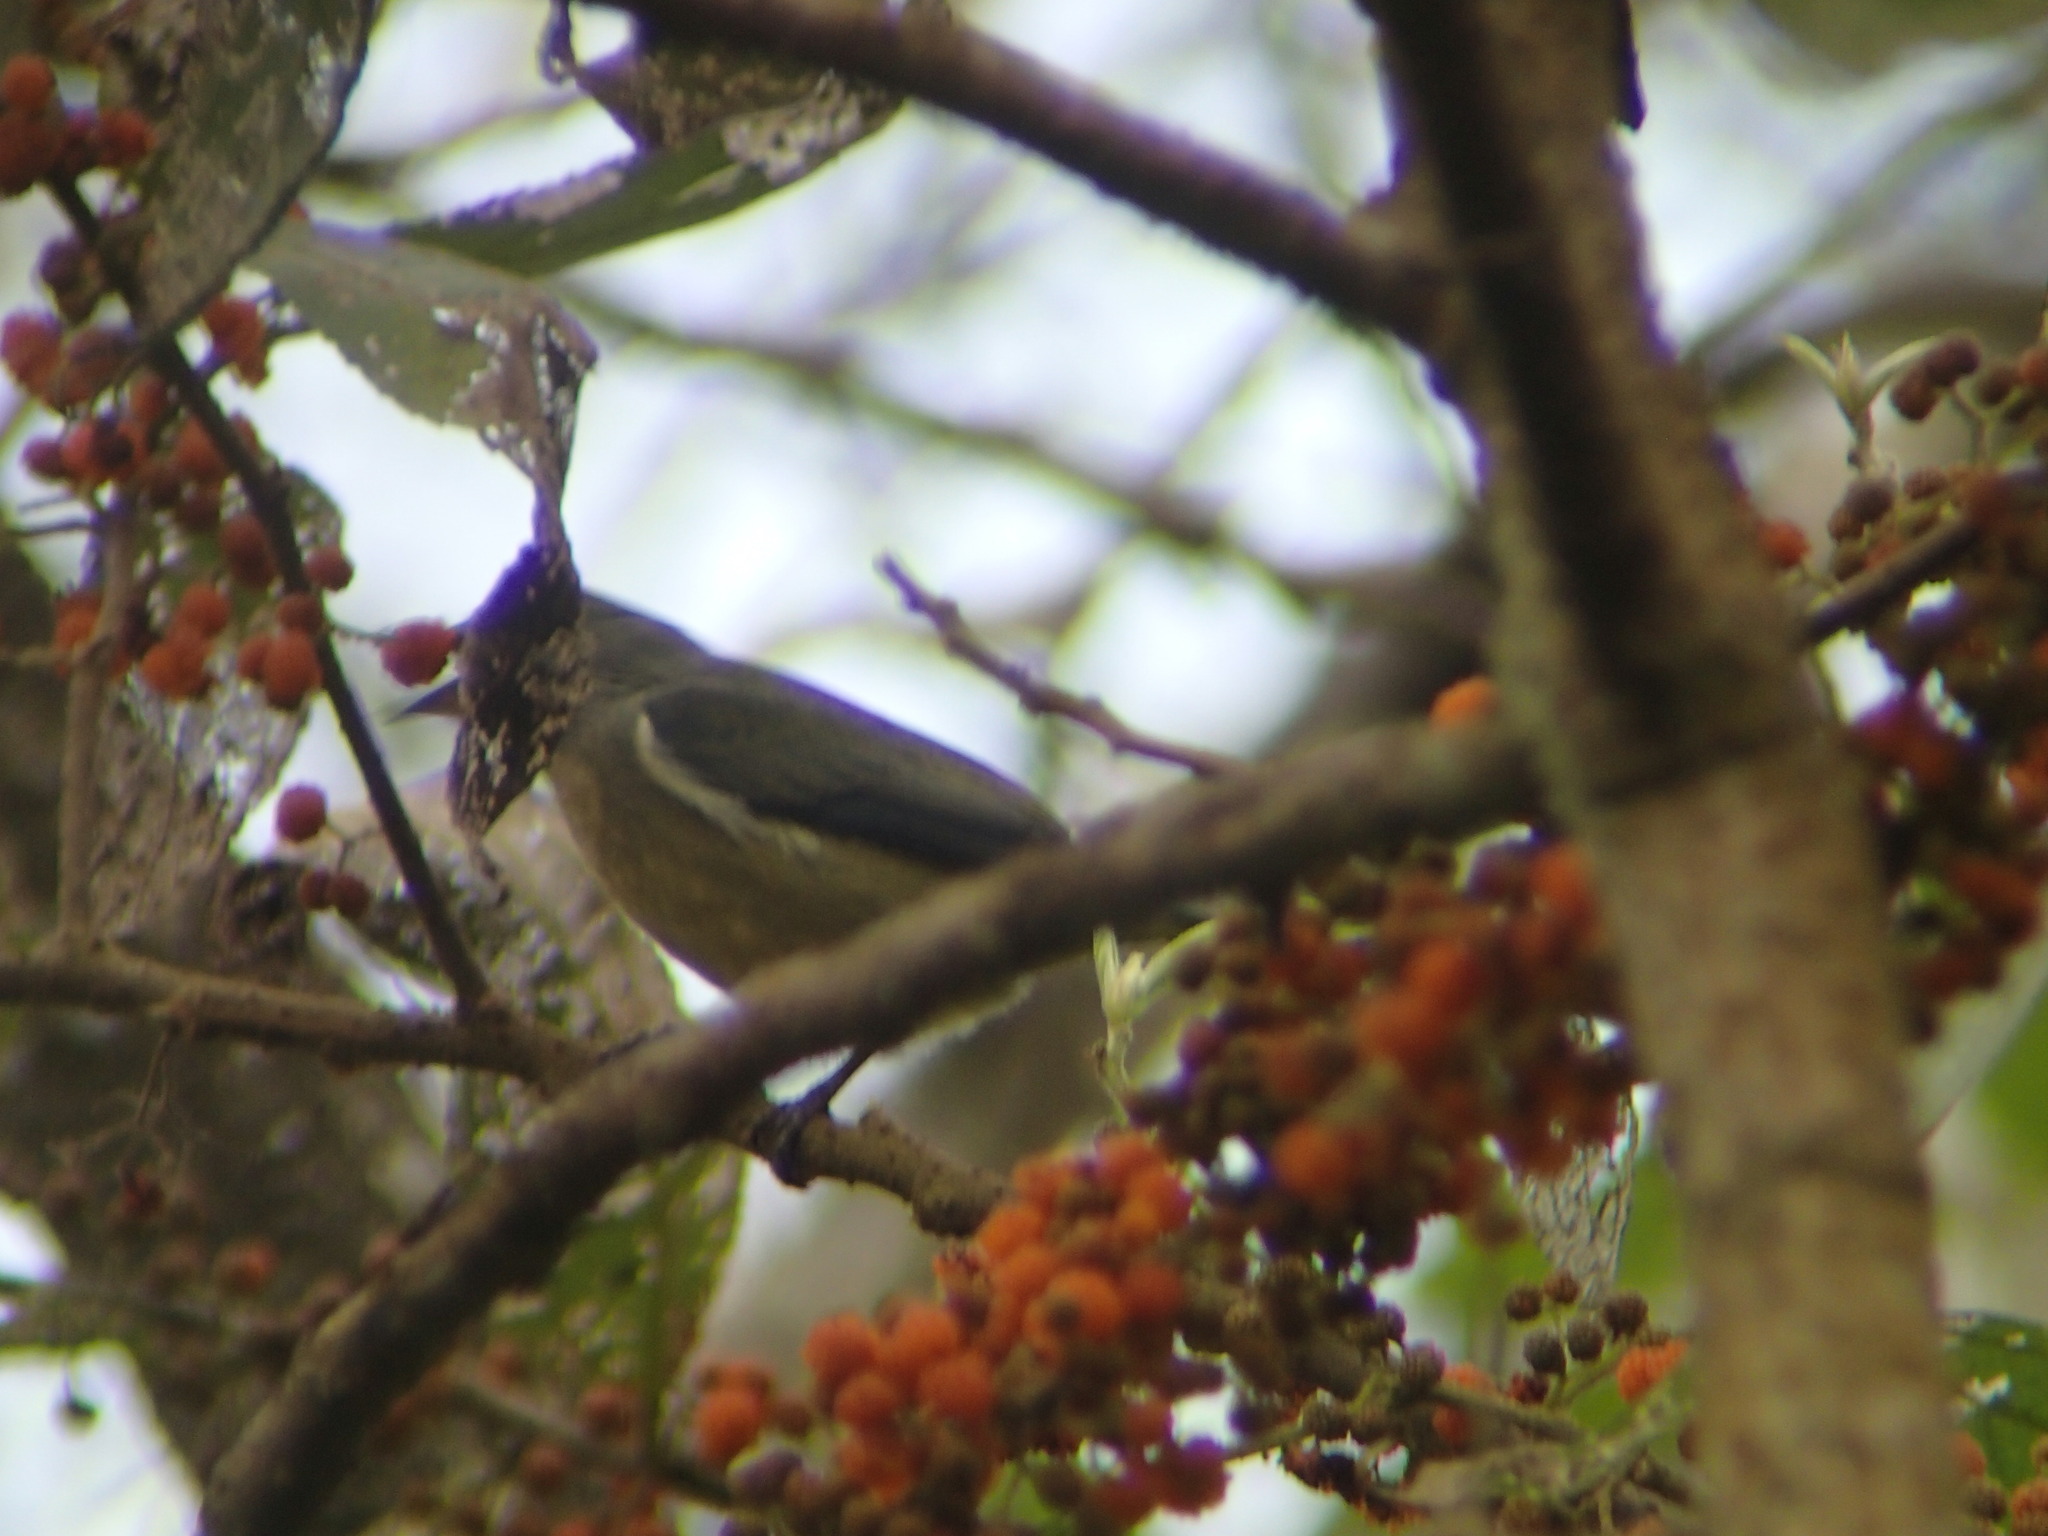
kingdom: Animalia
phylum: Chordata
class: Aves
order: Passeriformes
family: Dicaeidae
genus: Dicaeum
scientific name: Dicaeum ignipectus
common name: Fire-breasted flowerpecker
